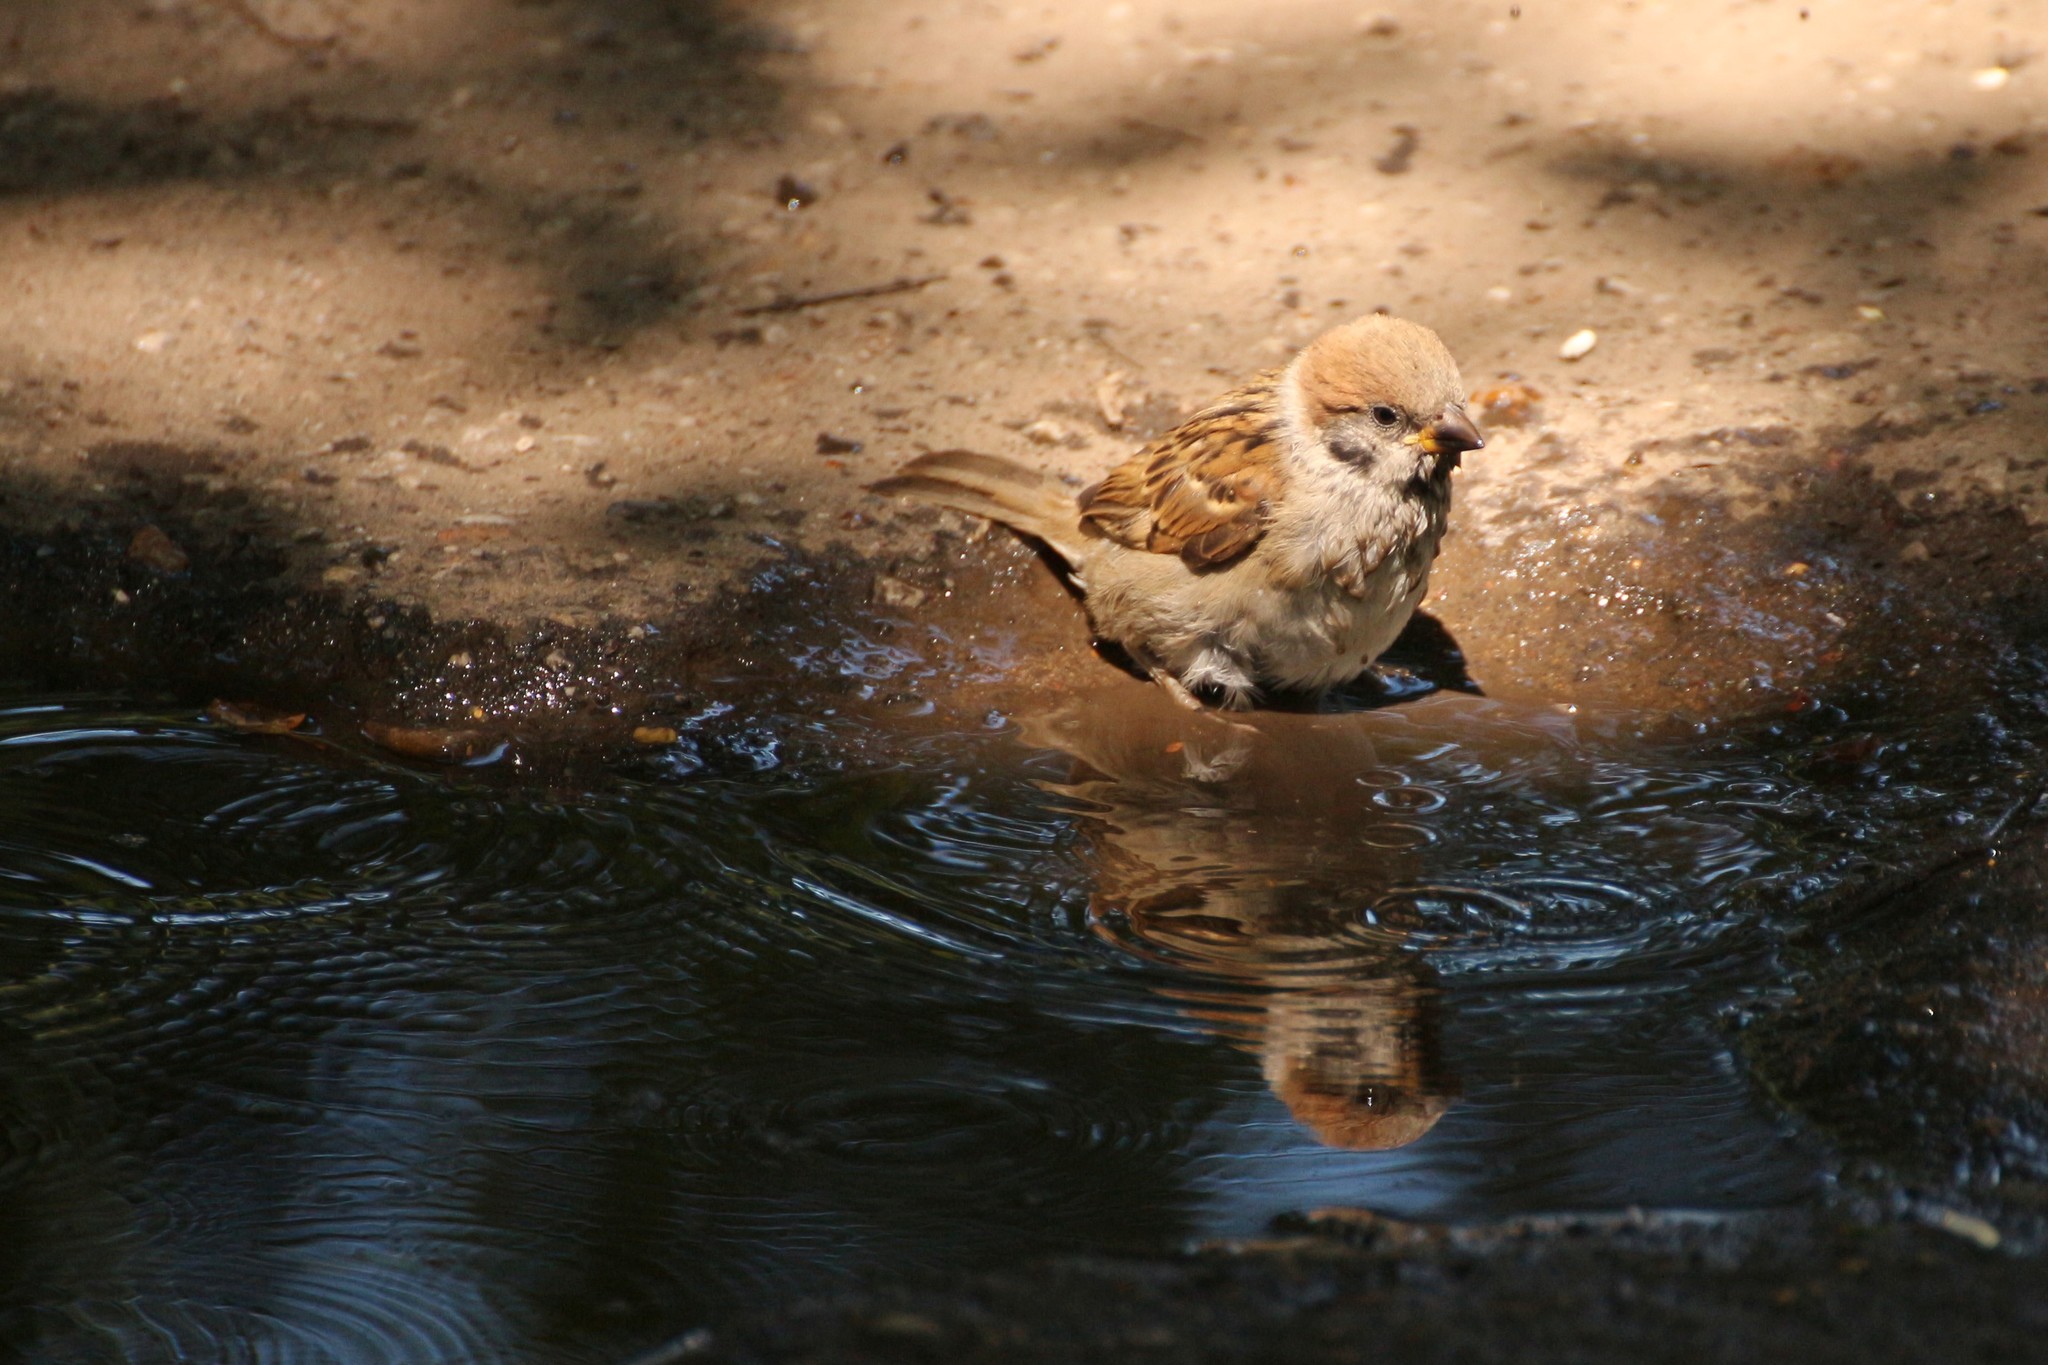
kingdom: Animalia
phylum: Chordata
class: Aves
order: Passeriformes
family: Passeridae
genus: Passer
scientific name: Passer montanus
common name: Eurasian tree sparrow
